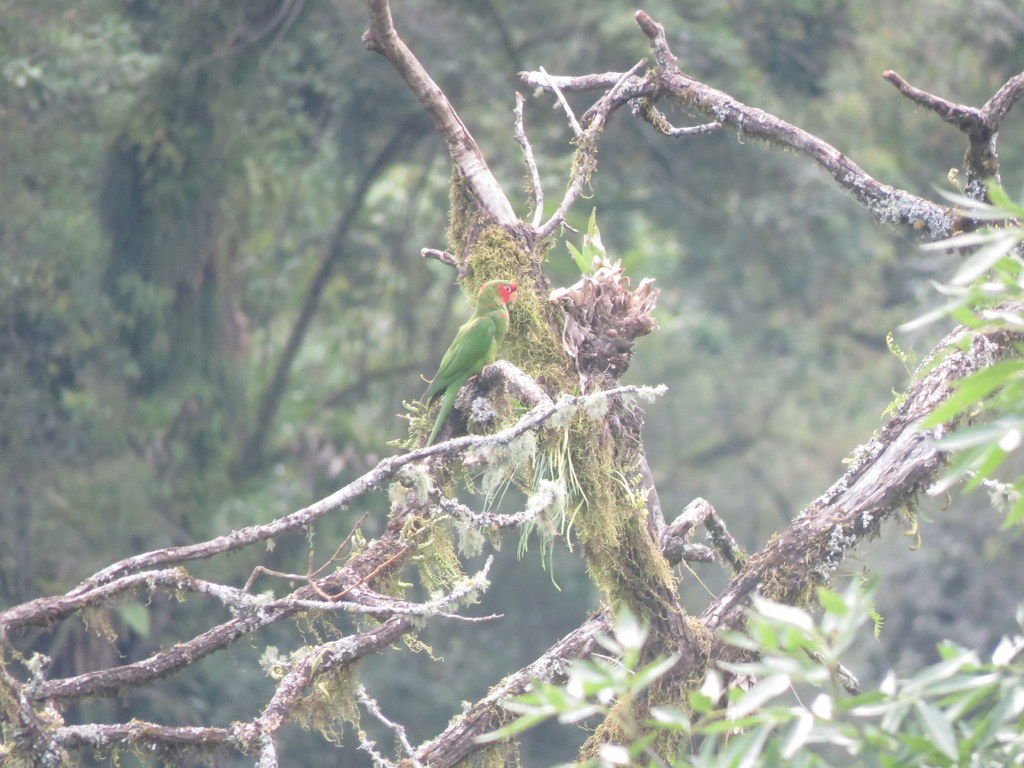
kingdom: Animalia
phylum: Chordata
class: Aves
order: Psittaciformes
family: Psittacidae
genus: Aratinga
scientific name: Aratinga mitrata
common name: Mitred parakeet
